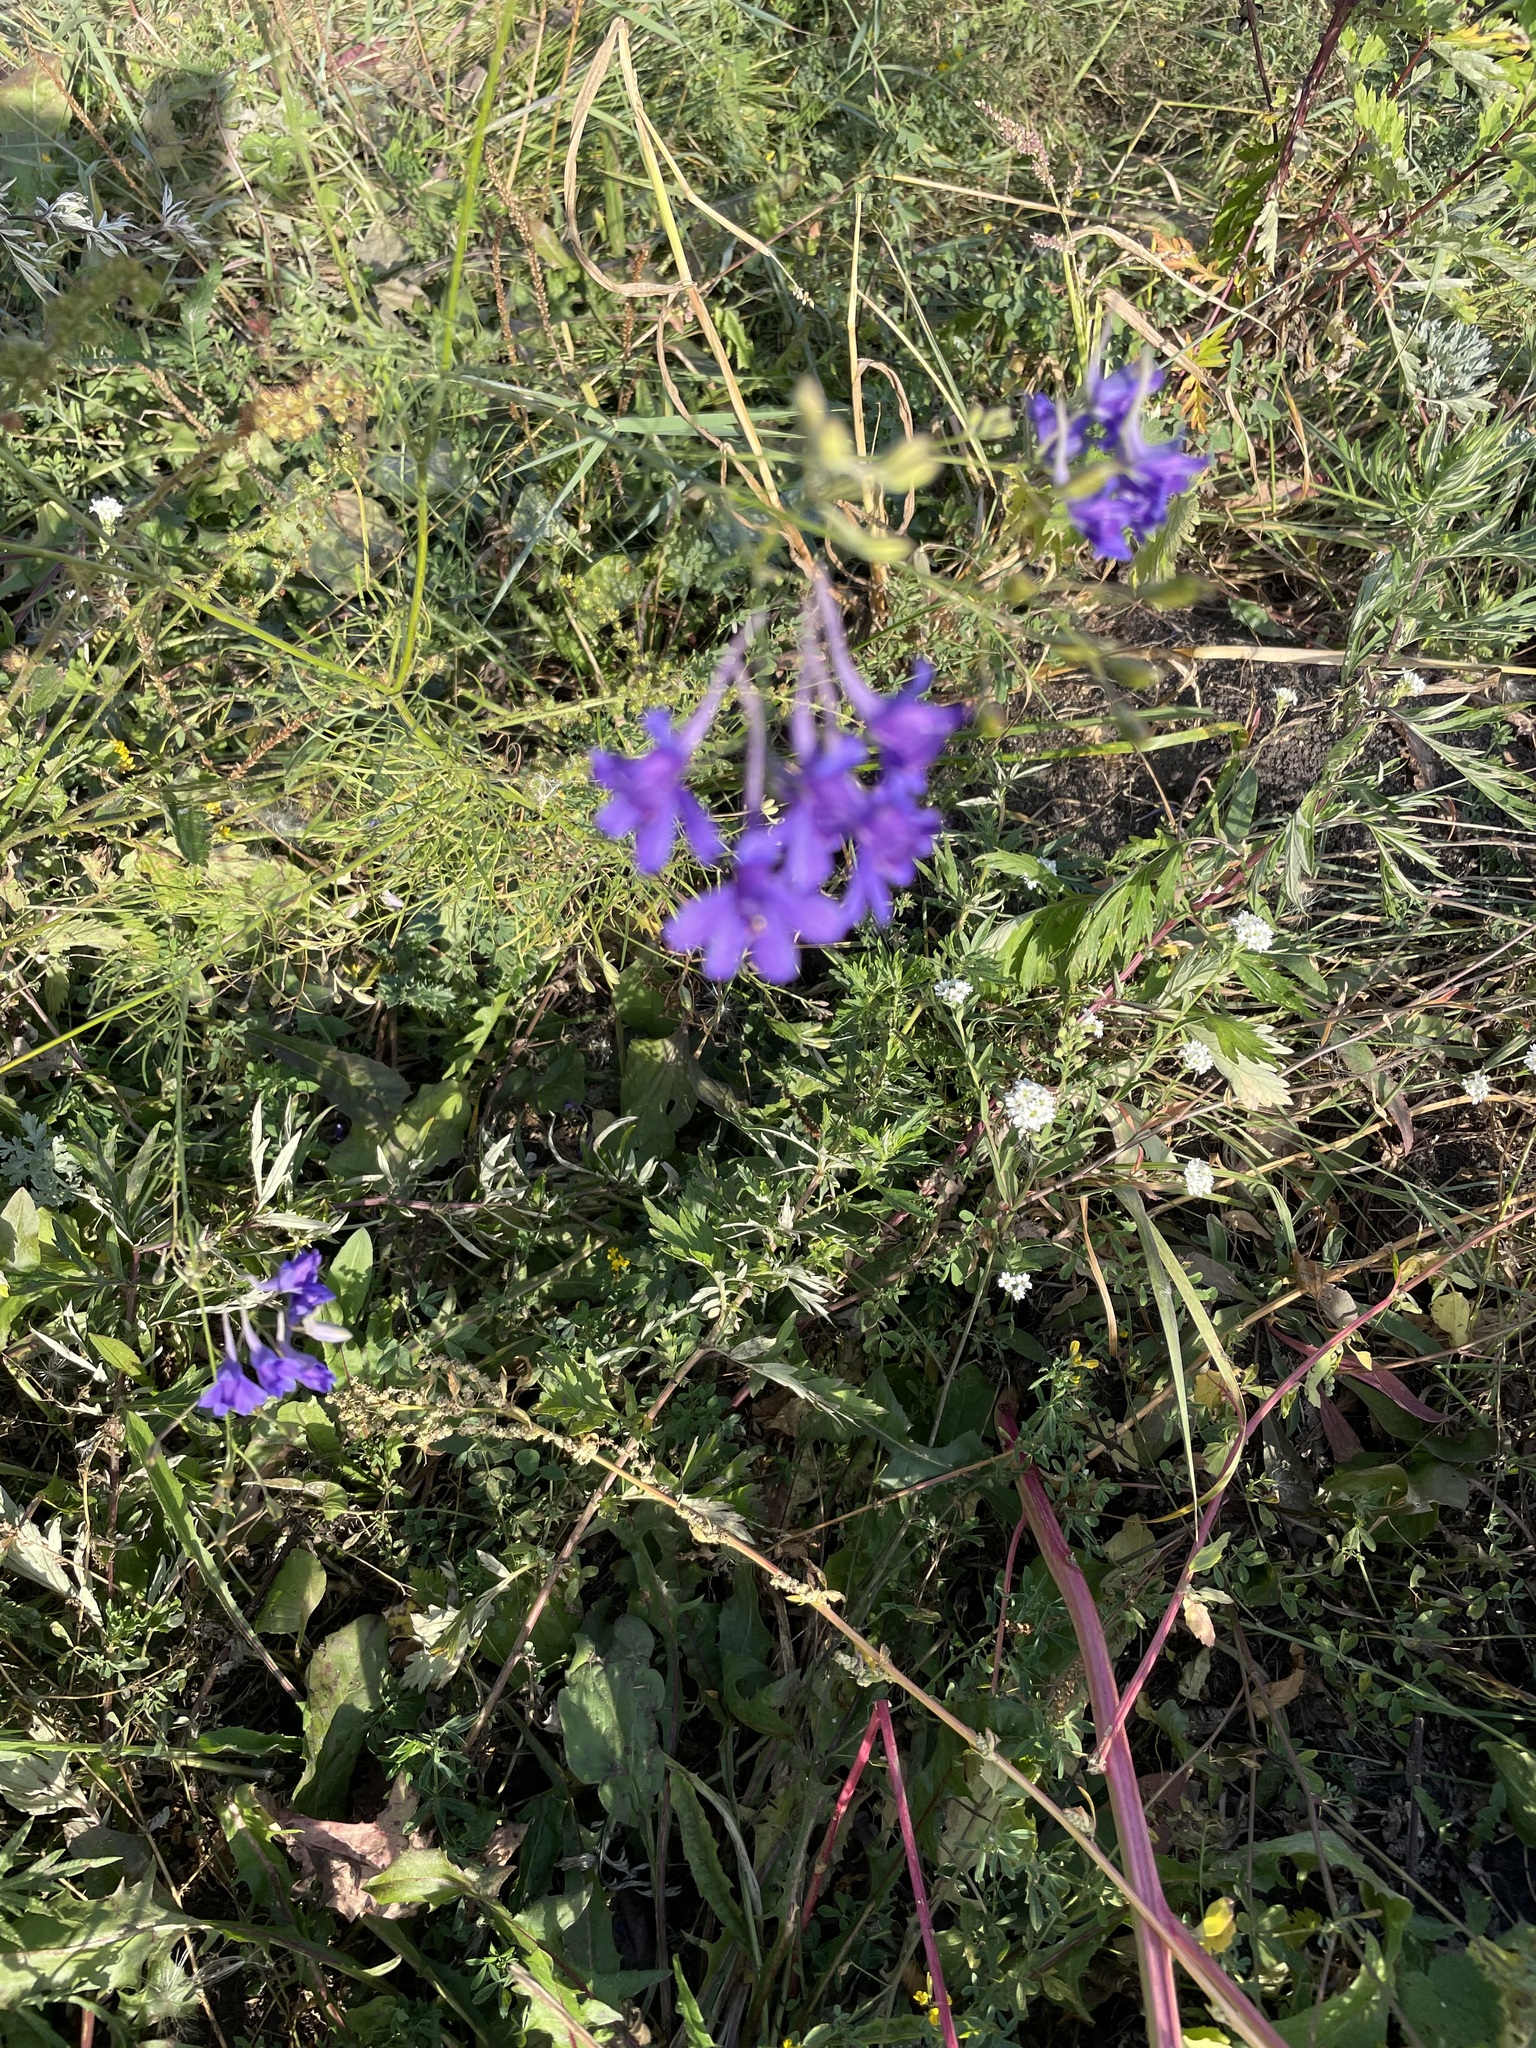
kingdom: Plantae
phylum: Tracheophyta
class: Magnoliopsida
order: Ranunculales
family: Ranunculaceae
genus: Delphinium
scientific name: Delphinium consolida
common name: Branching larkspur
